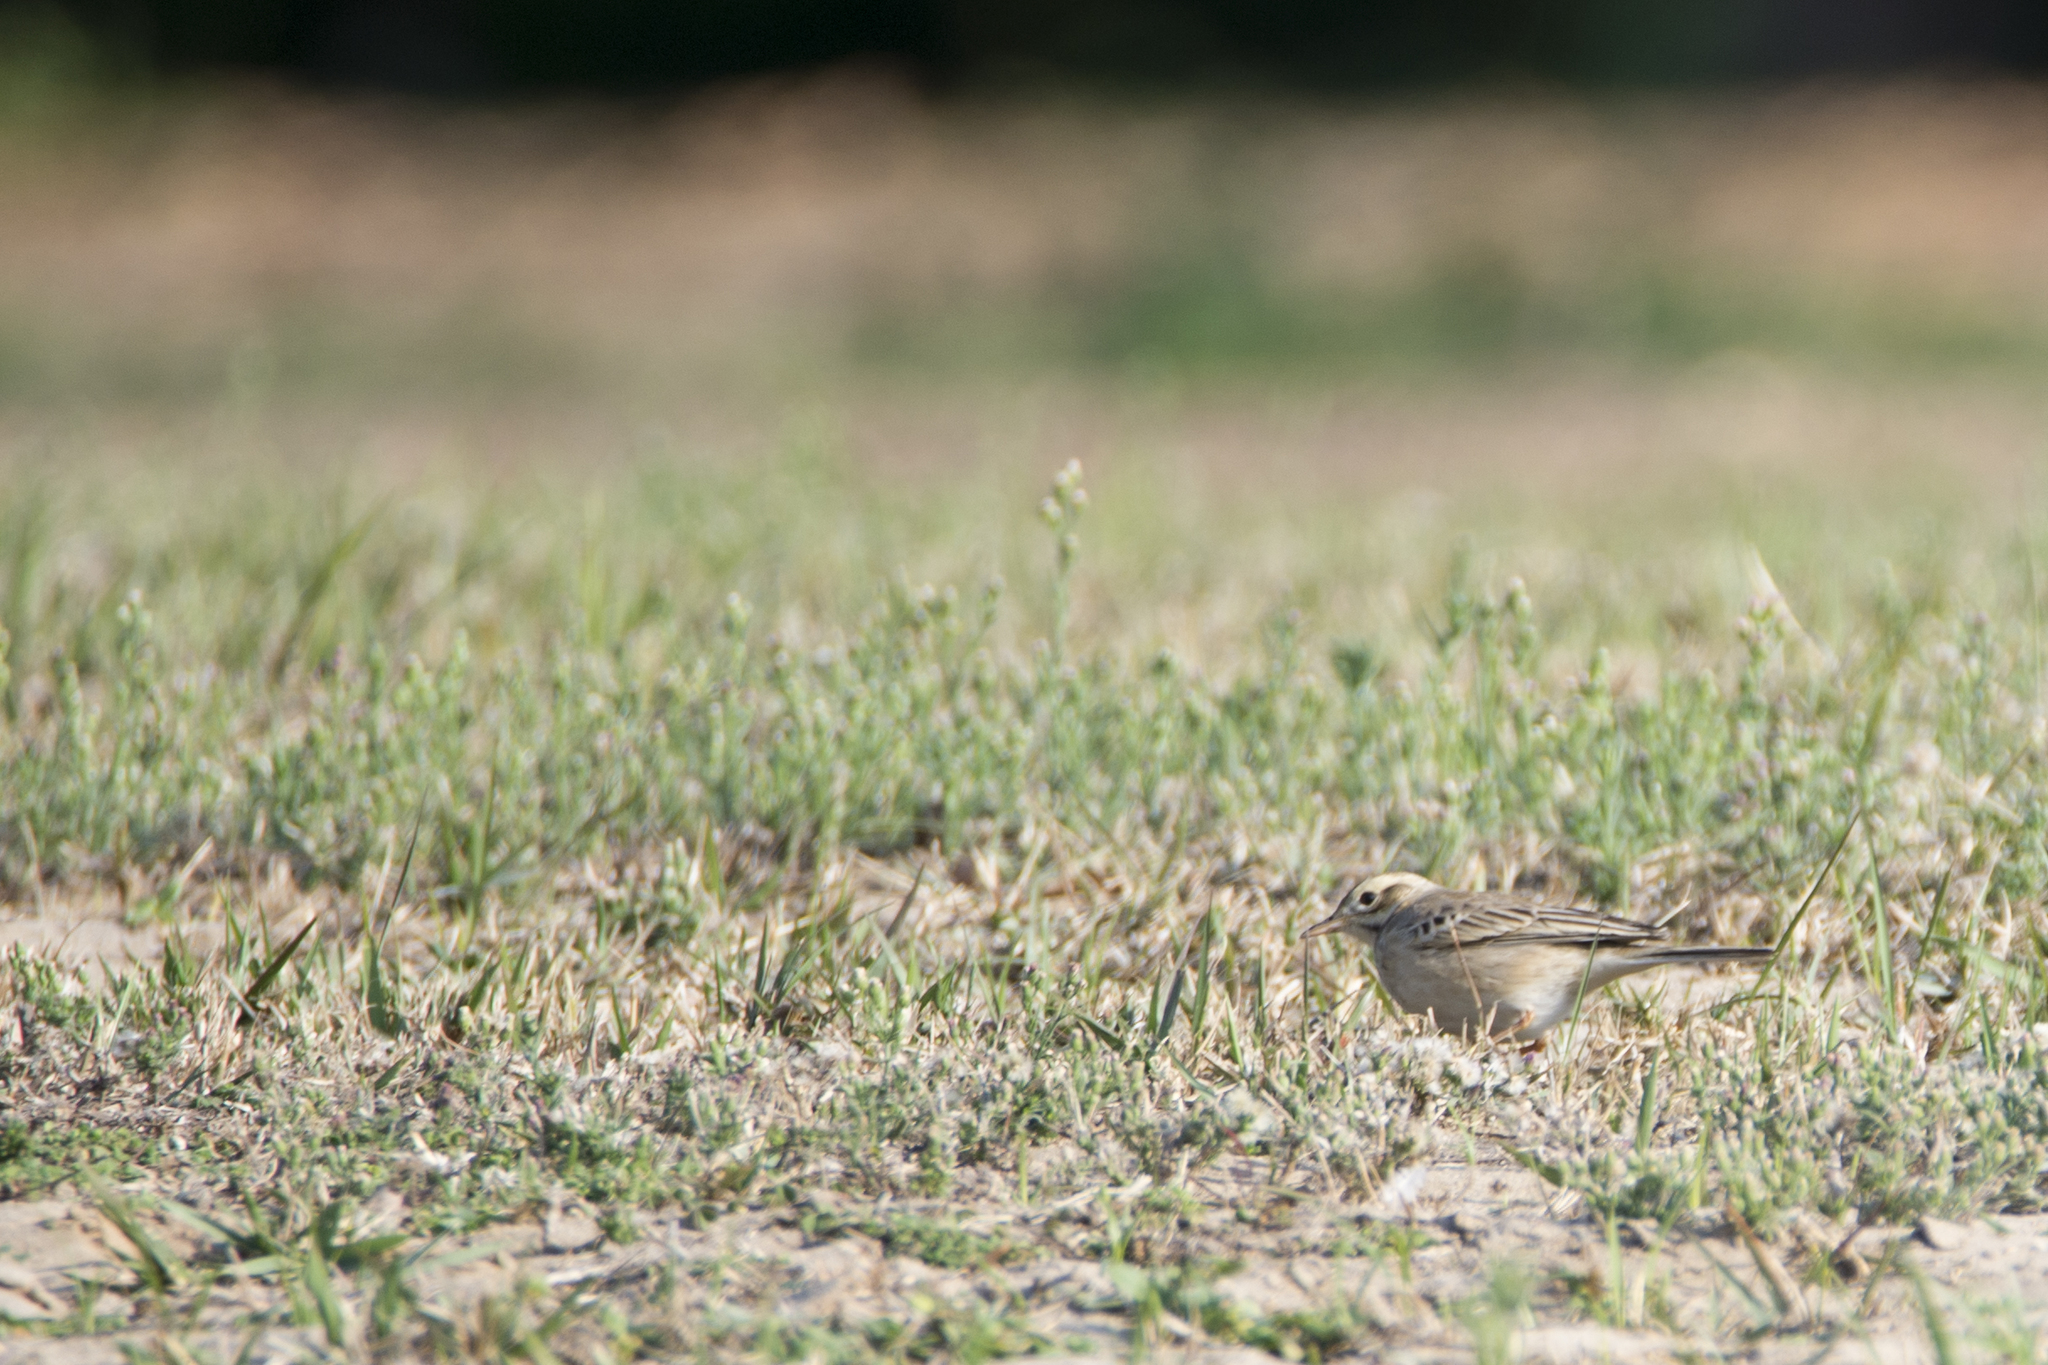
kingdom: Animalia
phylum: Chordata
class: Aves
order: Passeriformes
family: Motacillidae
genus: Anthus
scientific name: Anthus richardi
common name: Richard's pipit
